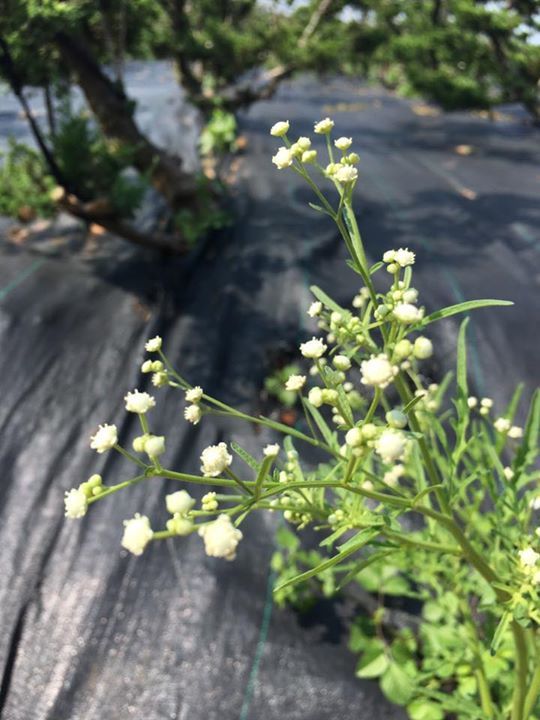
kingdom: Plantae
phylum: Tracheophyta
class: Magnoliopsida
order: Asterales
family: Asteraceae
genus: Parthenium
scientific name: Parthenium hysterophorus
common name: Santa maria feverfew
